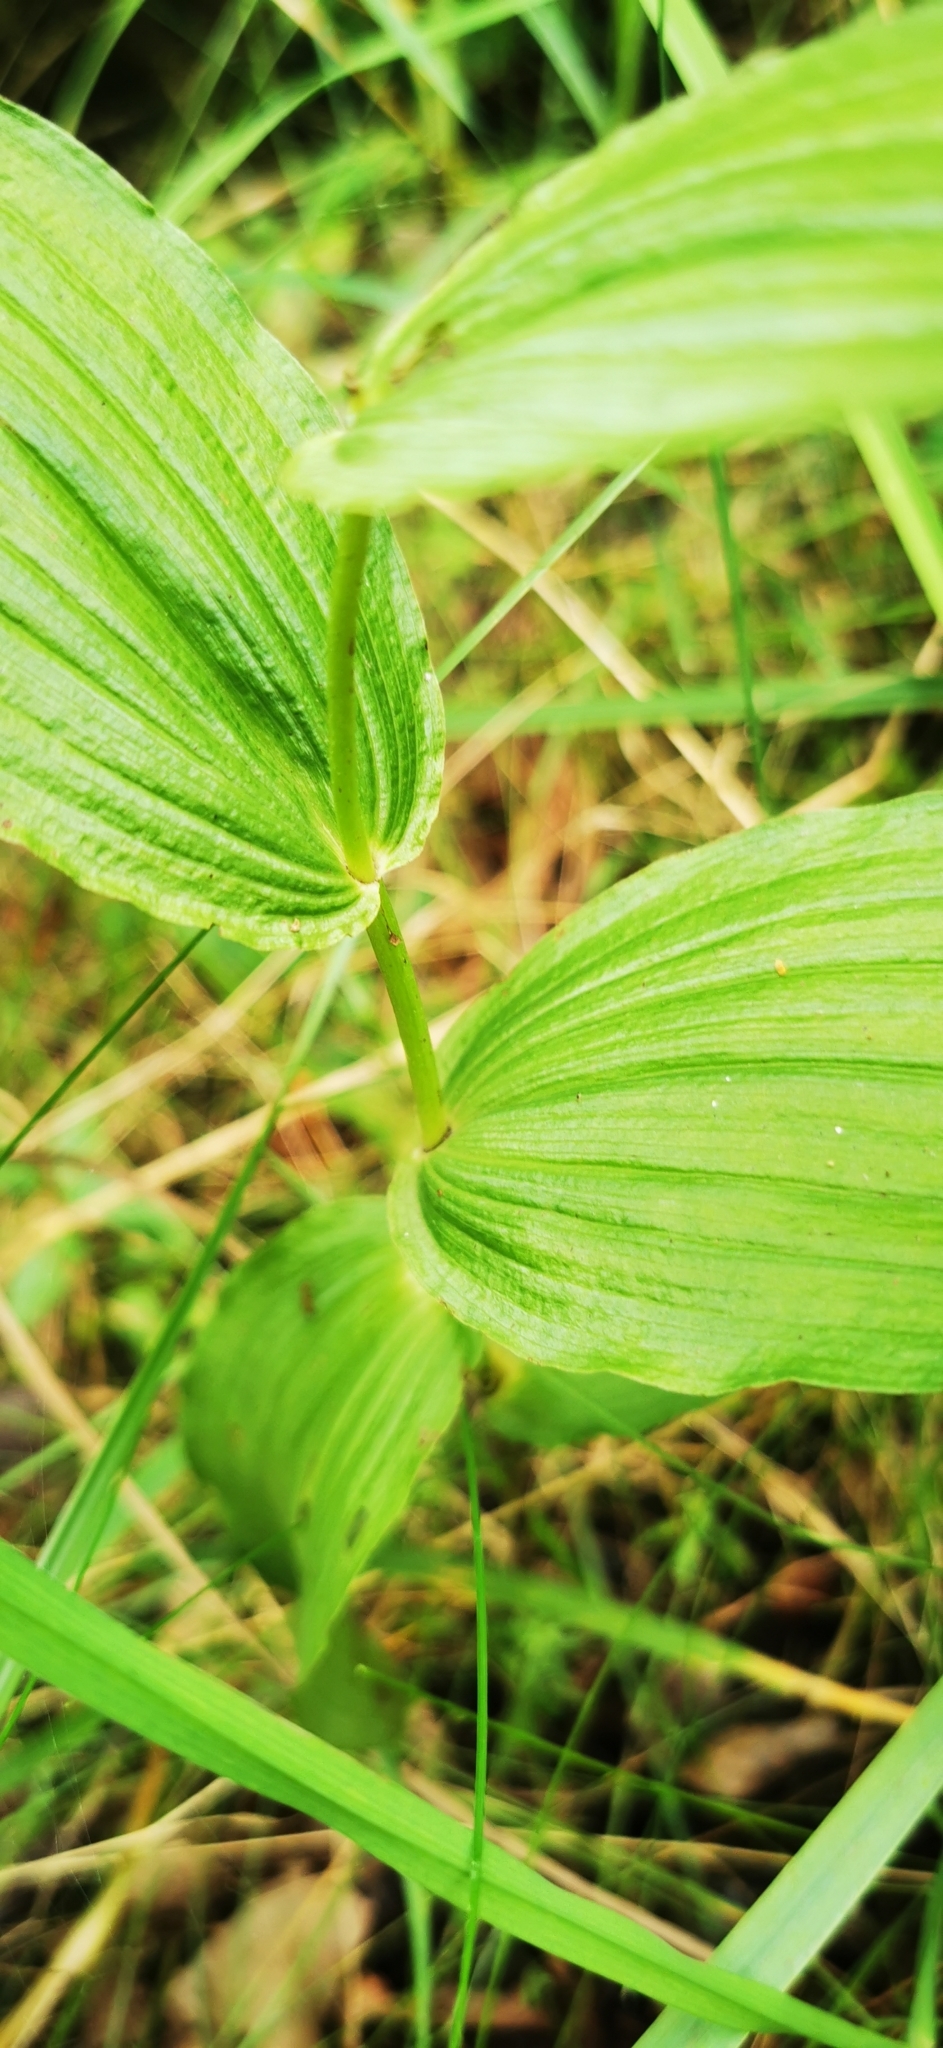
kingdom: Plantae
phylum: Tracheophyta
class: Liliopsida
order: Asparagales
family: Orchidaceae
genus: Epipactis
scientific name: Epipactis helleborine
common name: Broad-leaved helleborine
